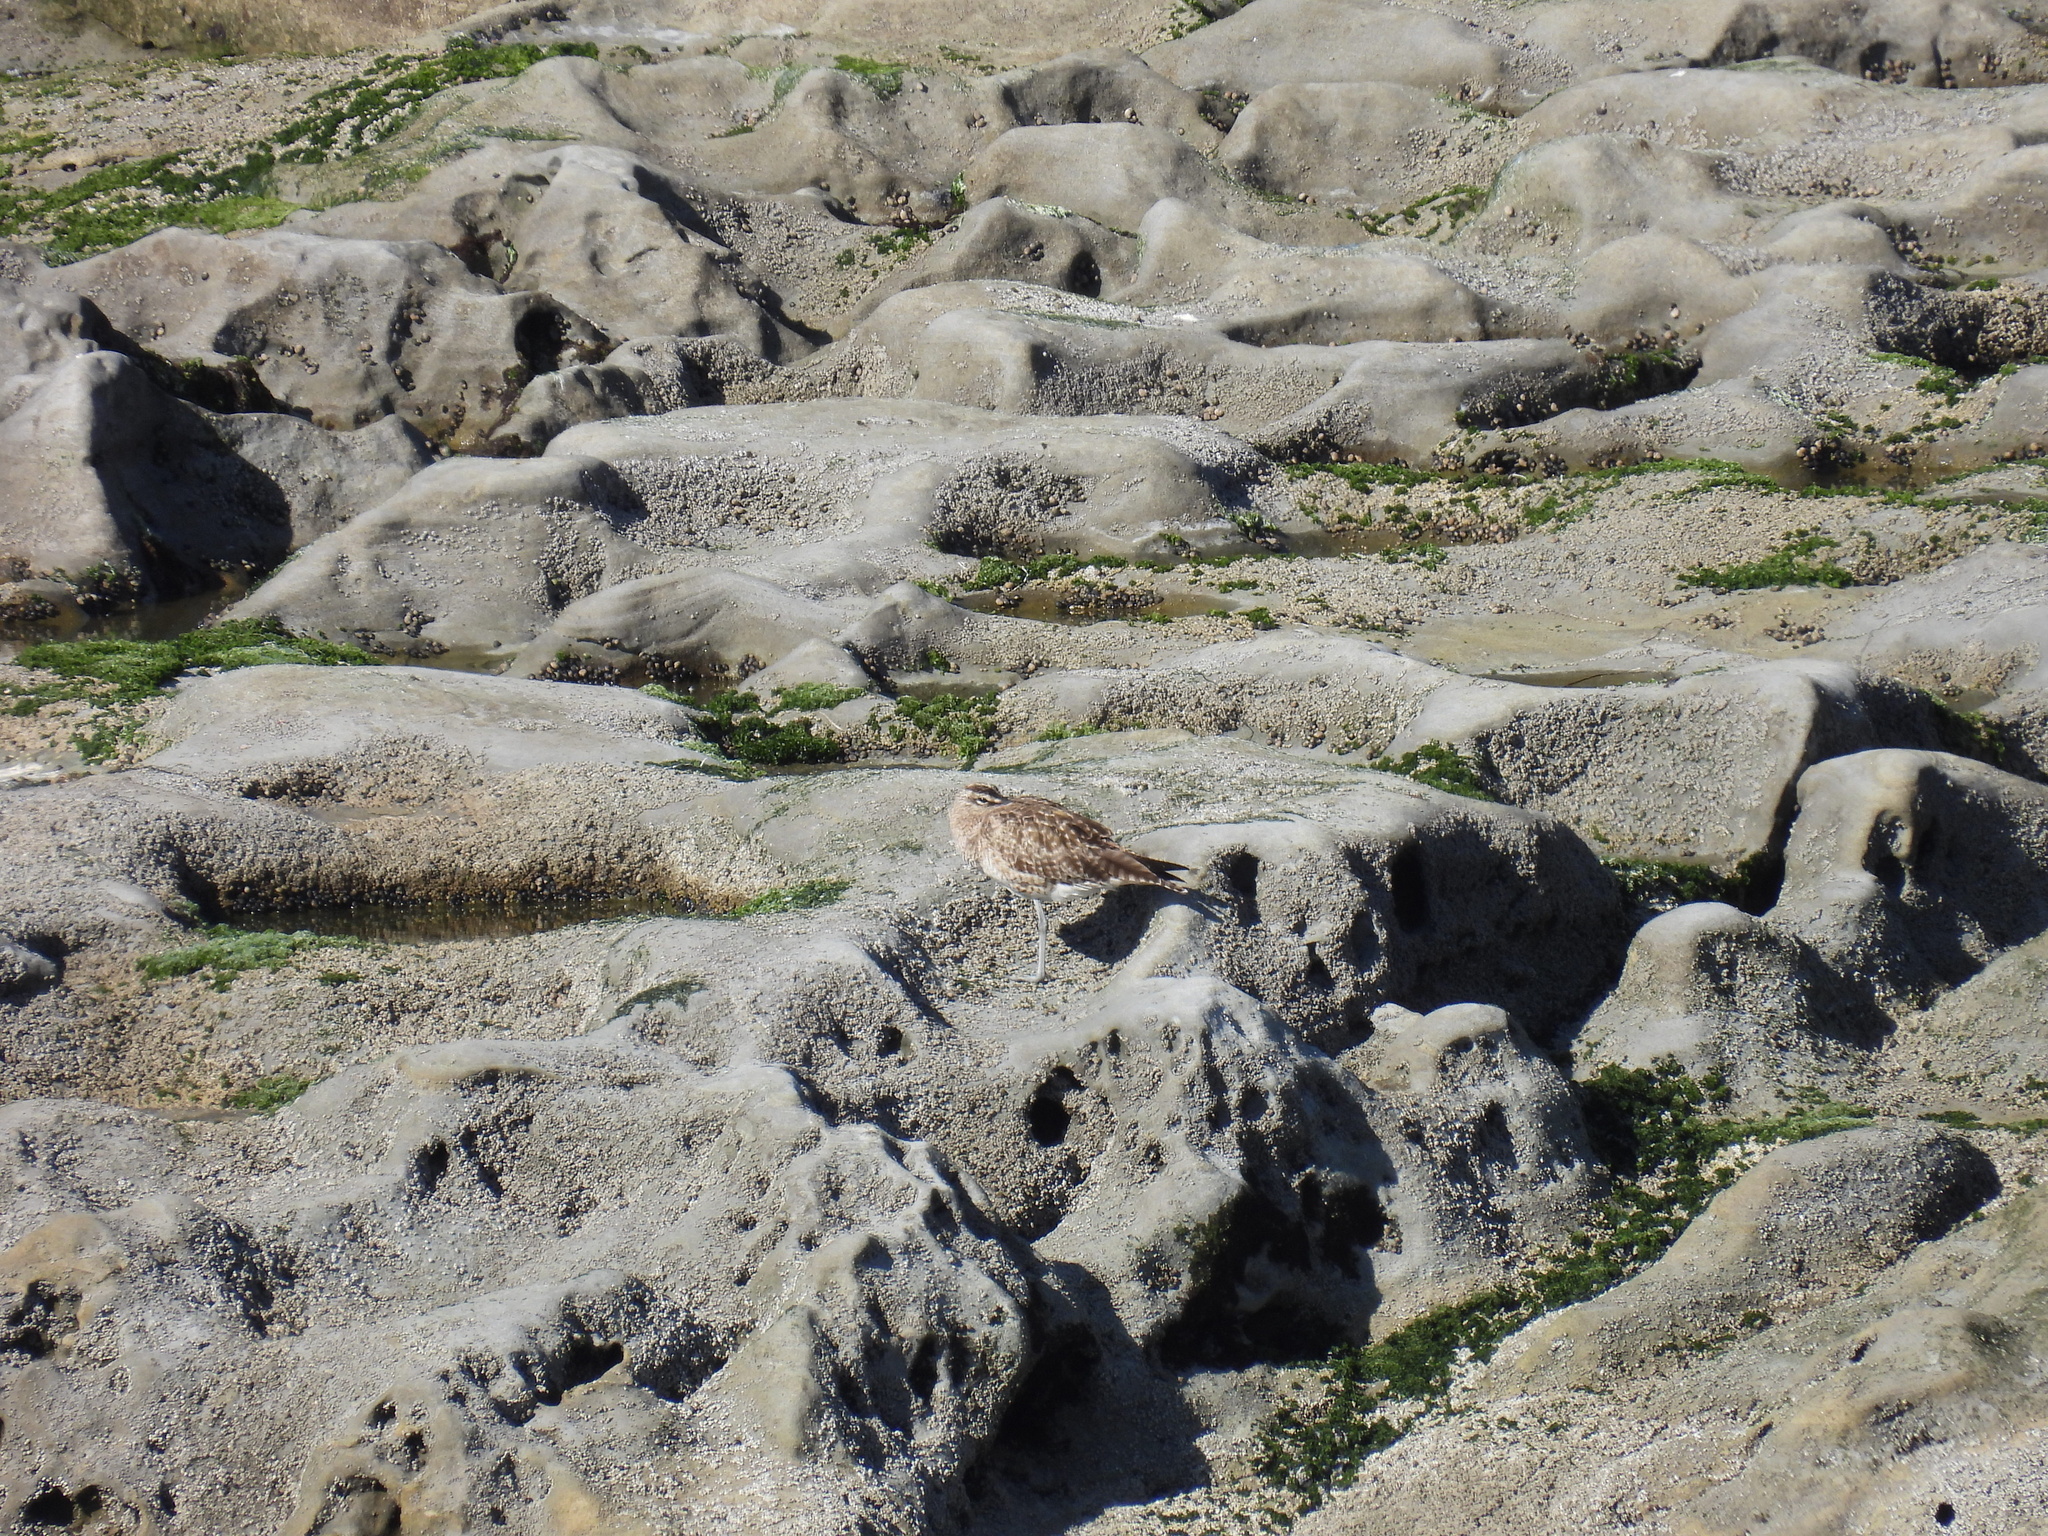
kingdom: Animalia
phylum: Chordata
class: Aves
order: Charadriiformes
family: Scolopacidae
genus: Numenius
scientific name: Numenius phaeopus
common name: Whimbrel
